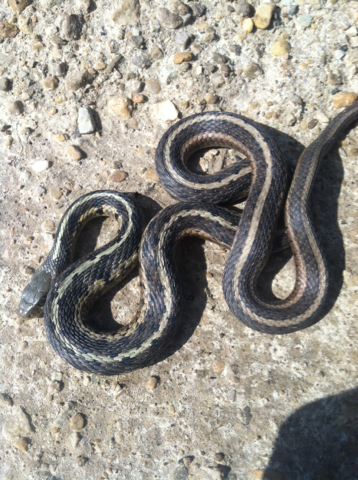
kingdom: Animalia
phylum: Chordata
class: Squamata
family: Colubridae
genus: Thamnophis
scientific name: Thamnophis sirtalis
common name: Common garter snake
